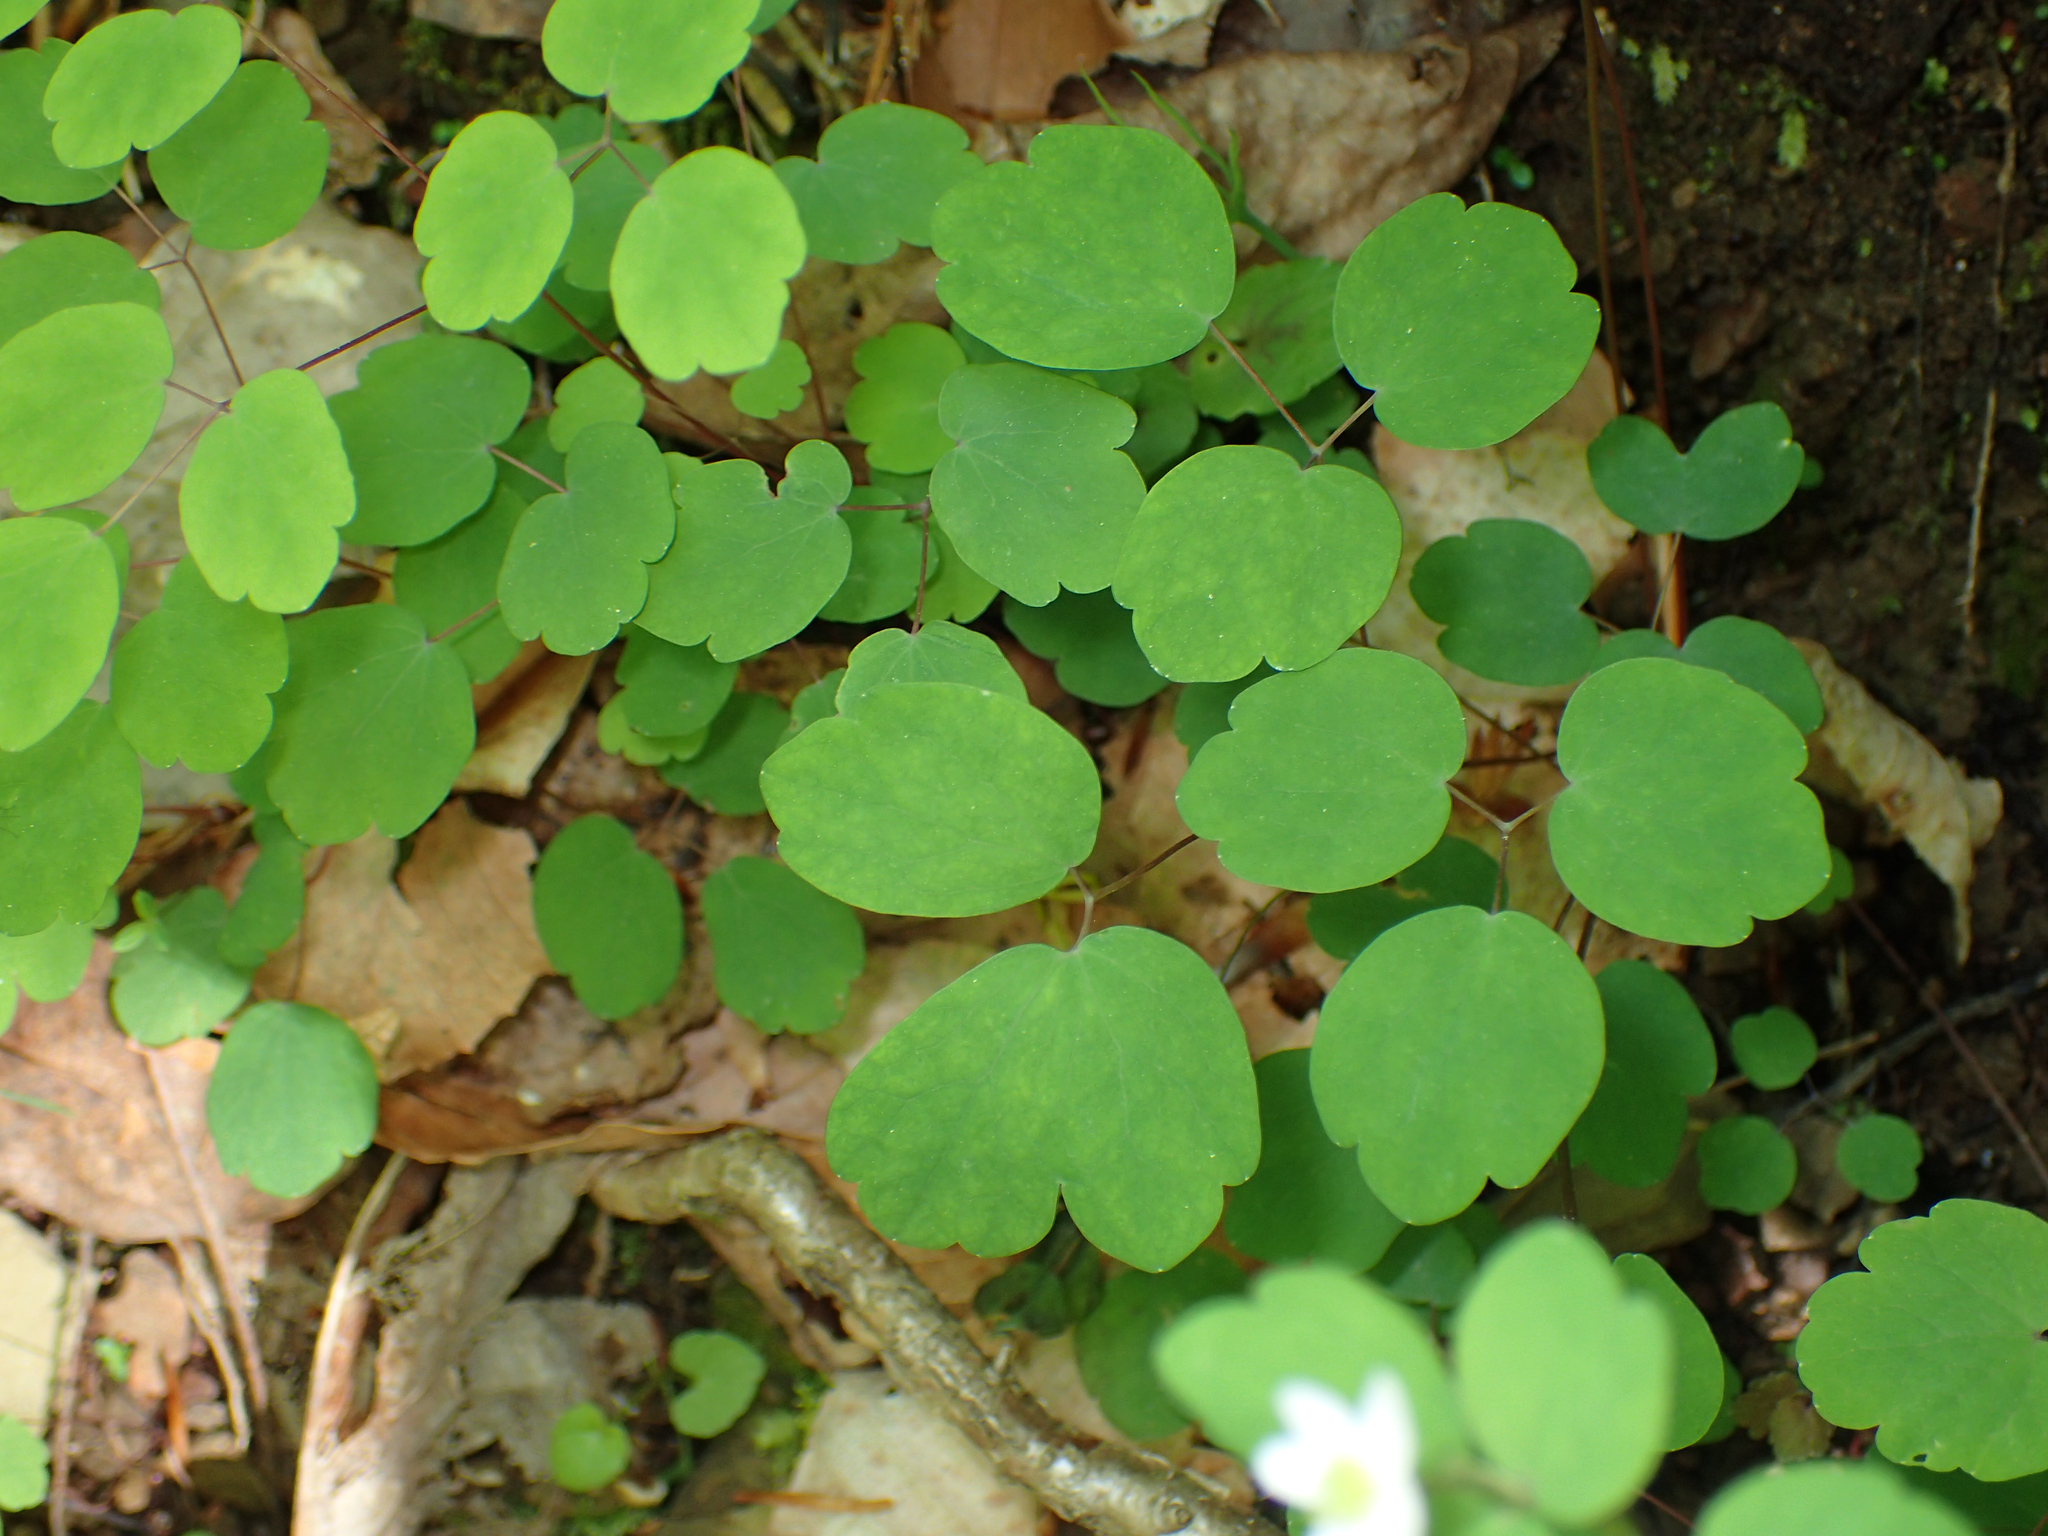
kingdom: Plantae
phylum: Tracheophyta
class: Magnoliopsida
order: Ranunculales
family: Ranunculaceae
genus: Thalictrum
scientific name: Thalictrum thalictroides
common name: Rue-anemone
